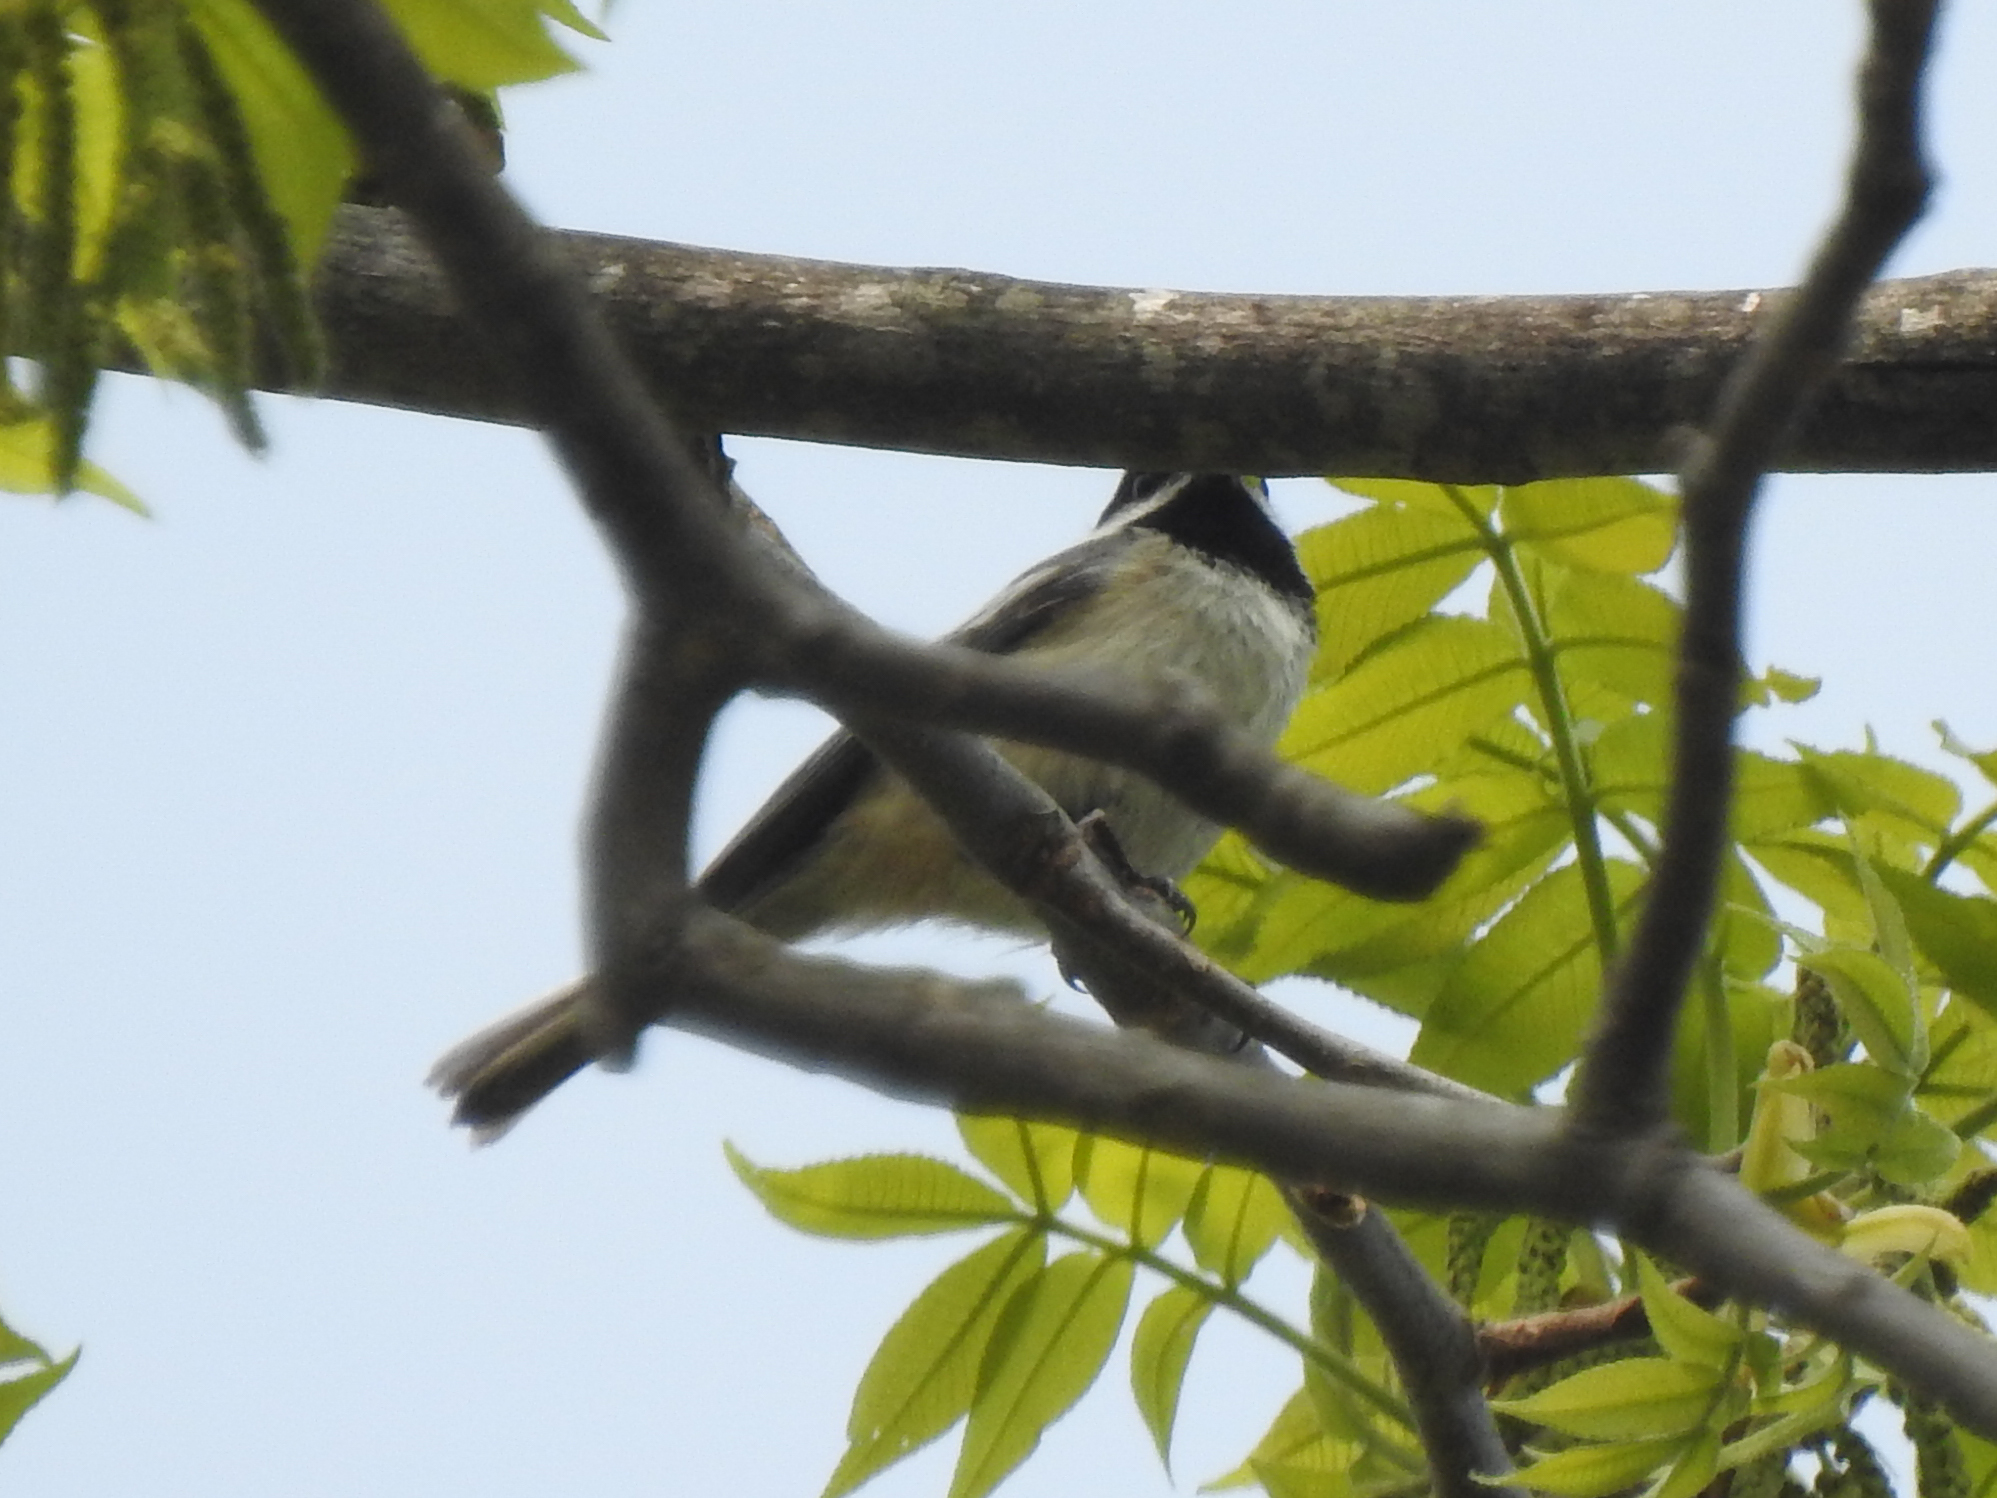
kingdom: Animalia
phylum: Chordata
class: Aves
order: Passeriformes
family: Paridae
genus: Poecile
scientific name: Poecile atricapillus
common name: Black-capped chickadee
